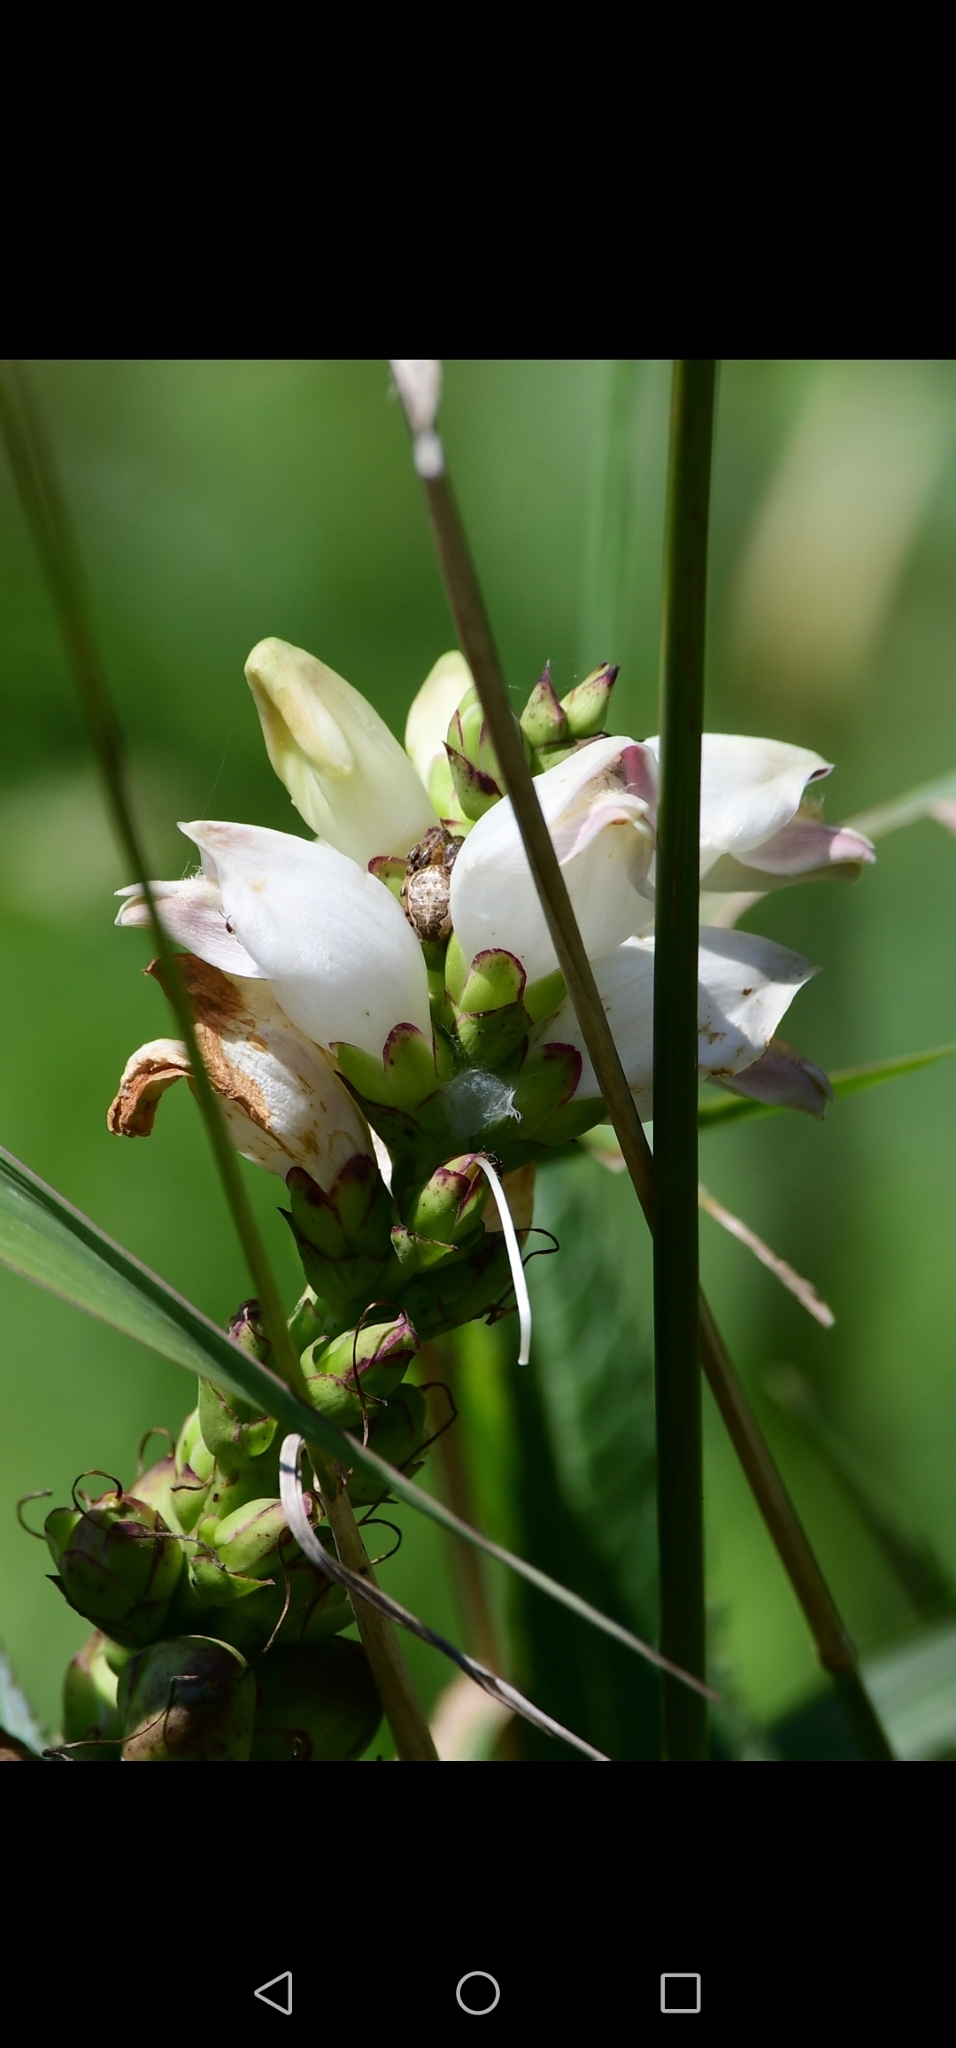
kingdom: Plantae
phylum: Tracheophyta
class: Magnoliopsida
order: Lamiales
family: Plantaginaceae
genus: Chelone
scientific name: Chelone glabra
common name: Snakehead
